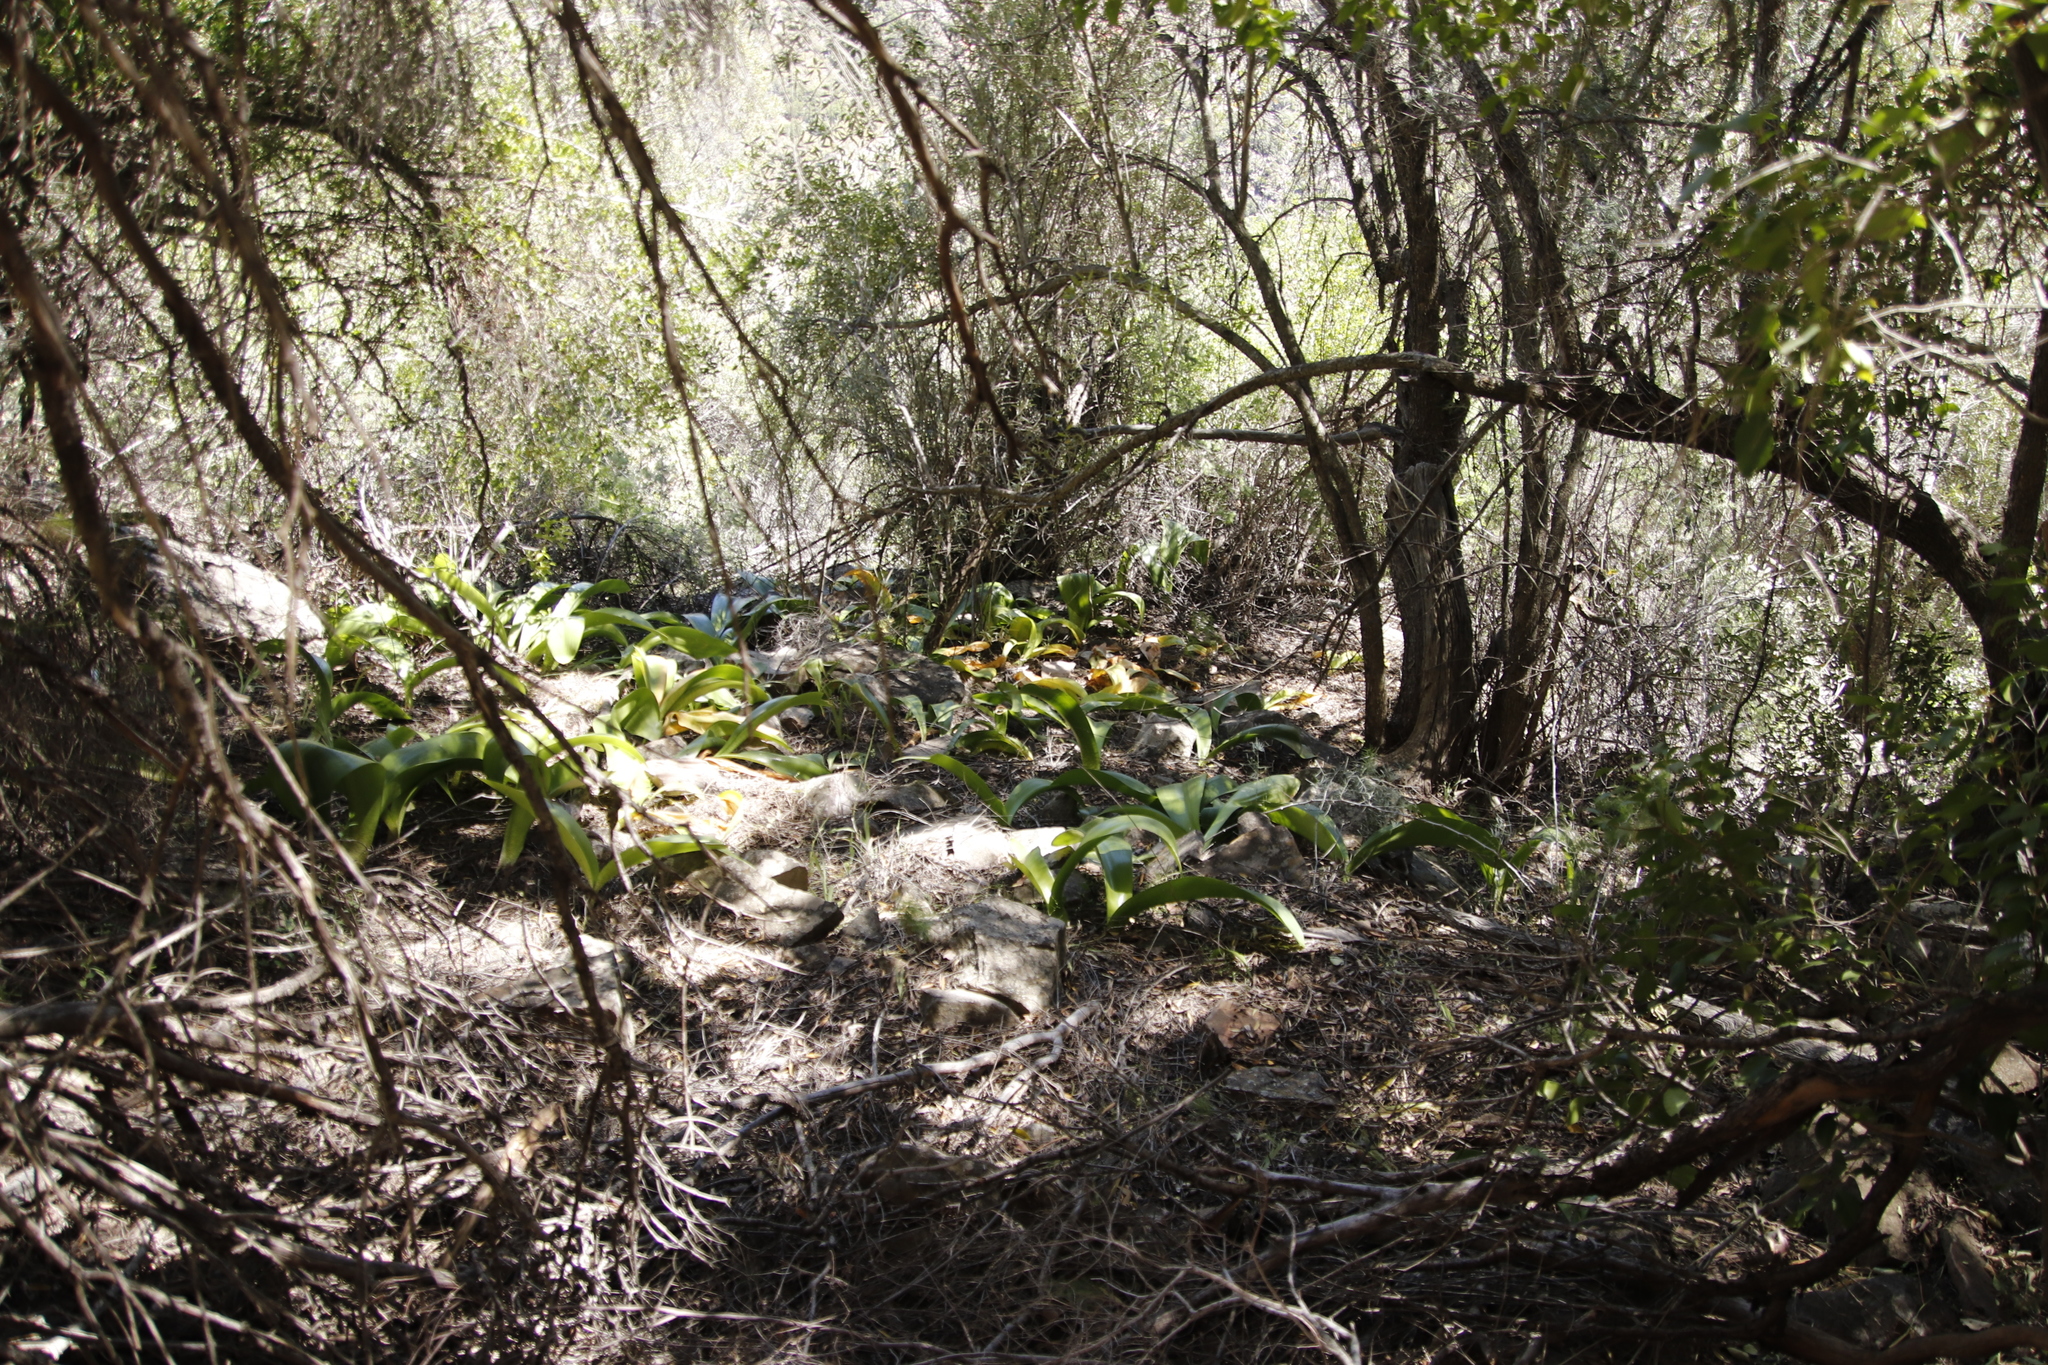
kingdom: Plantae
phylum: Tracheophyta
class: Liliopsida
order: Asparagales
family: Amaryllidaceae
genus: Haemanthus
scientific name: Haemanthus coccineus
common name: Cape-tulip
